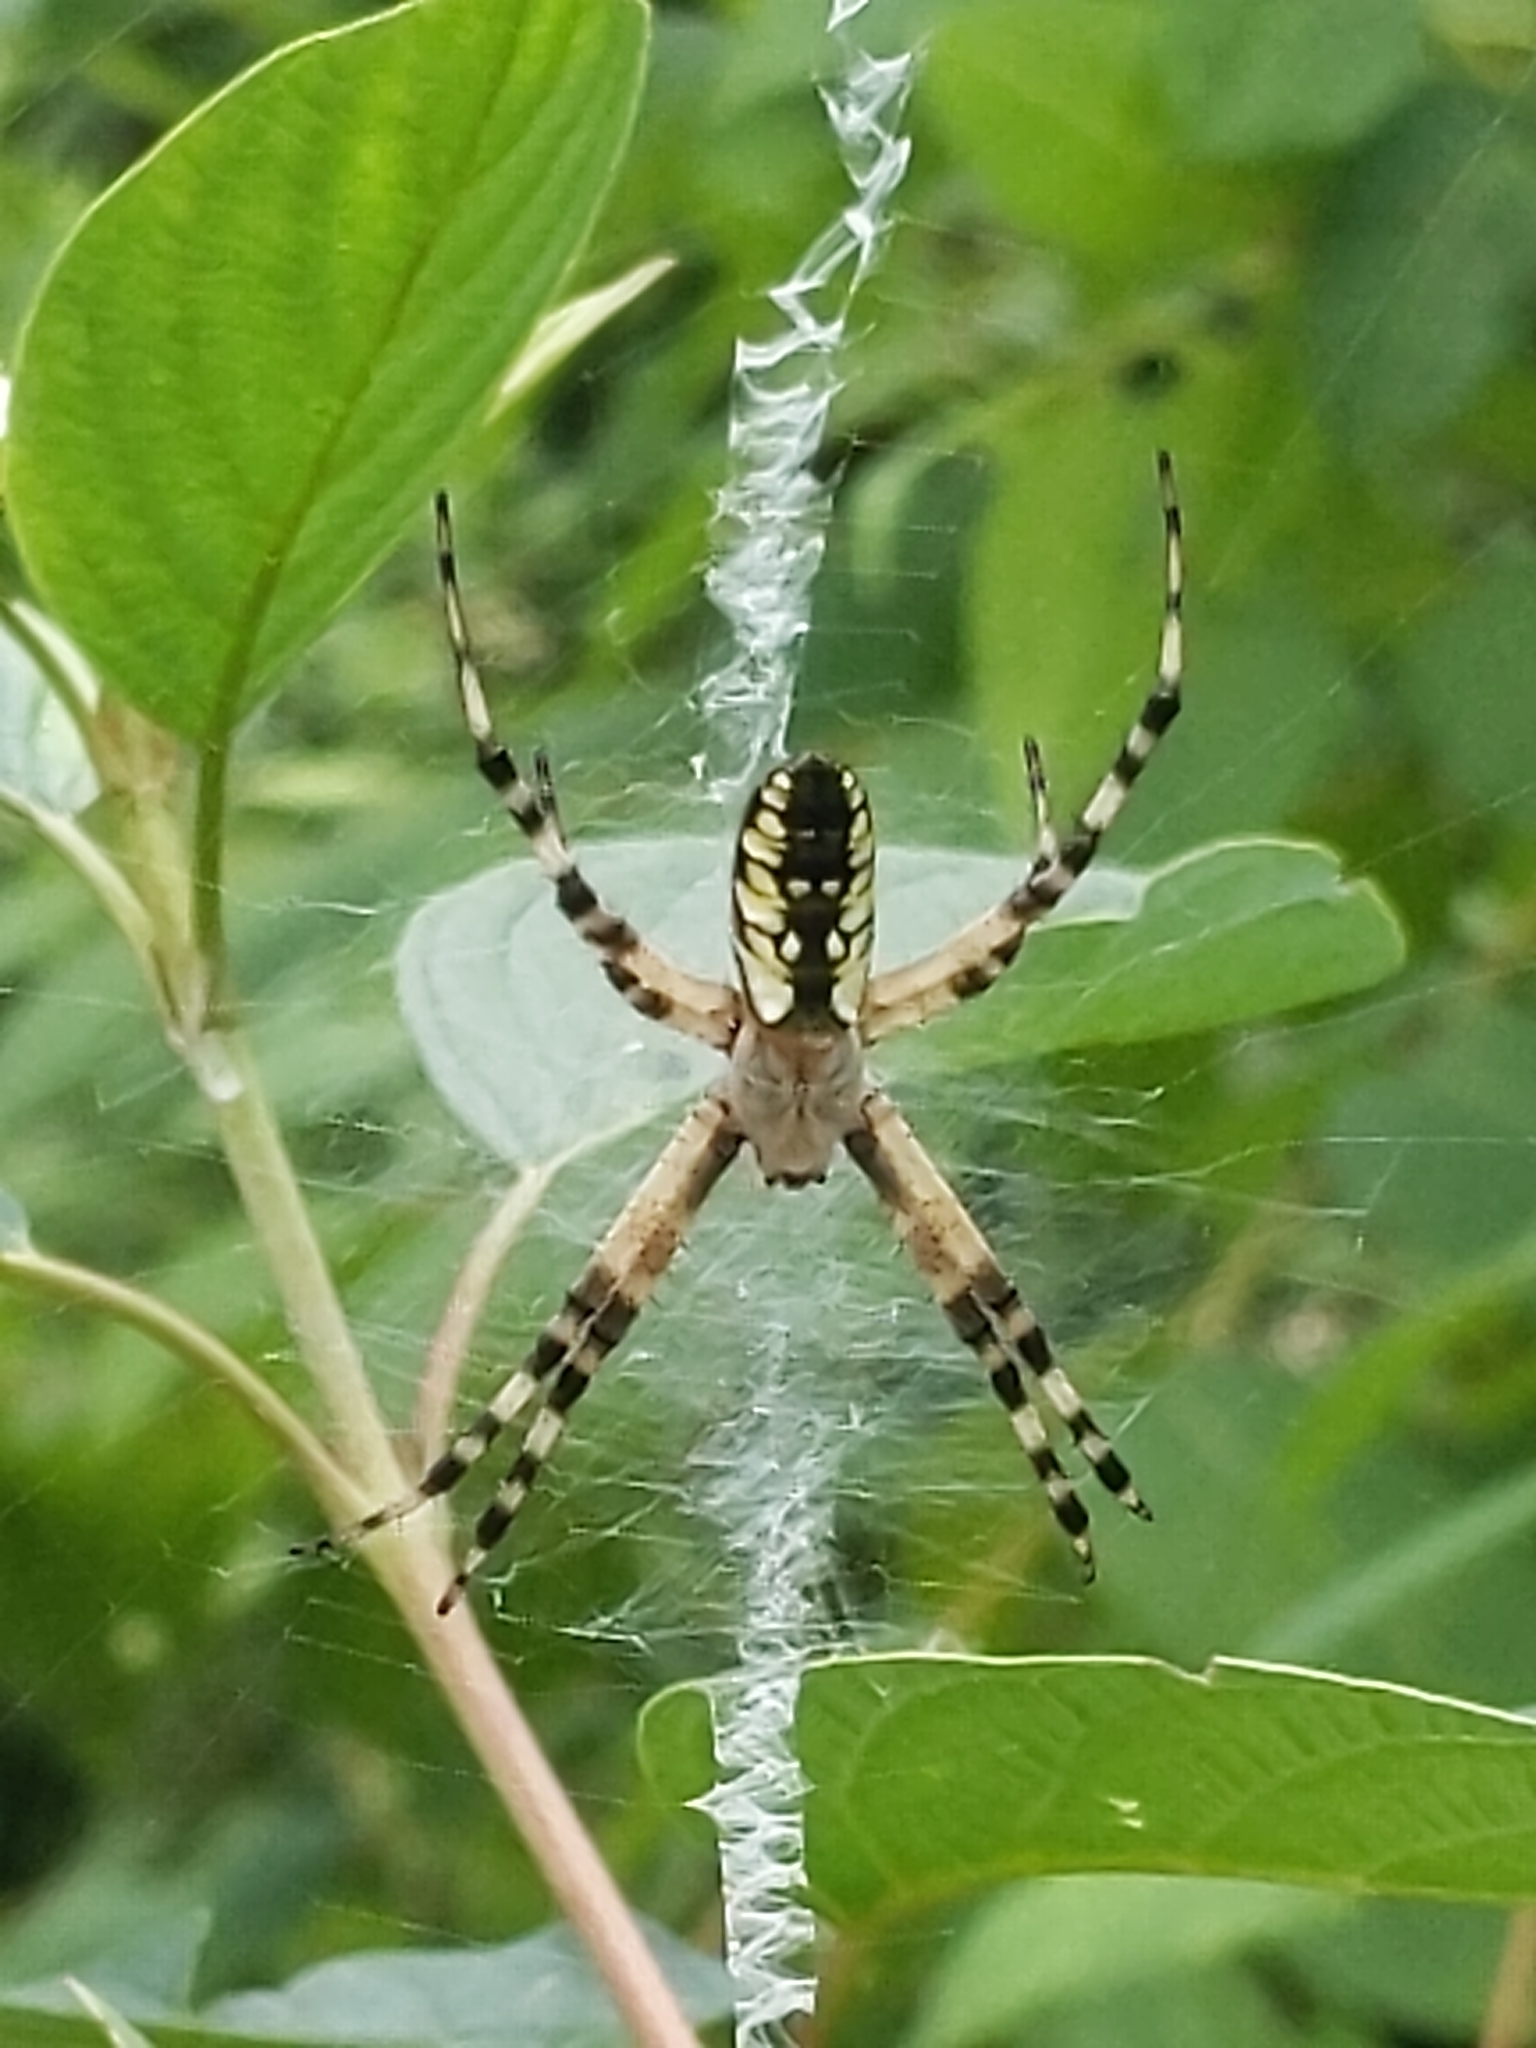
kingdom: Animalia
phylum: Arthropoda
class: Arachnida
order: Araneae
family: Araneidae
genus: Argiope
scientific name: Argiope aurantia
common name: Orb weavers
